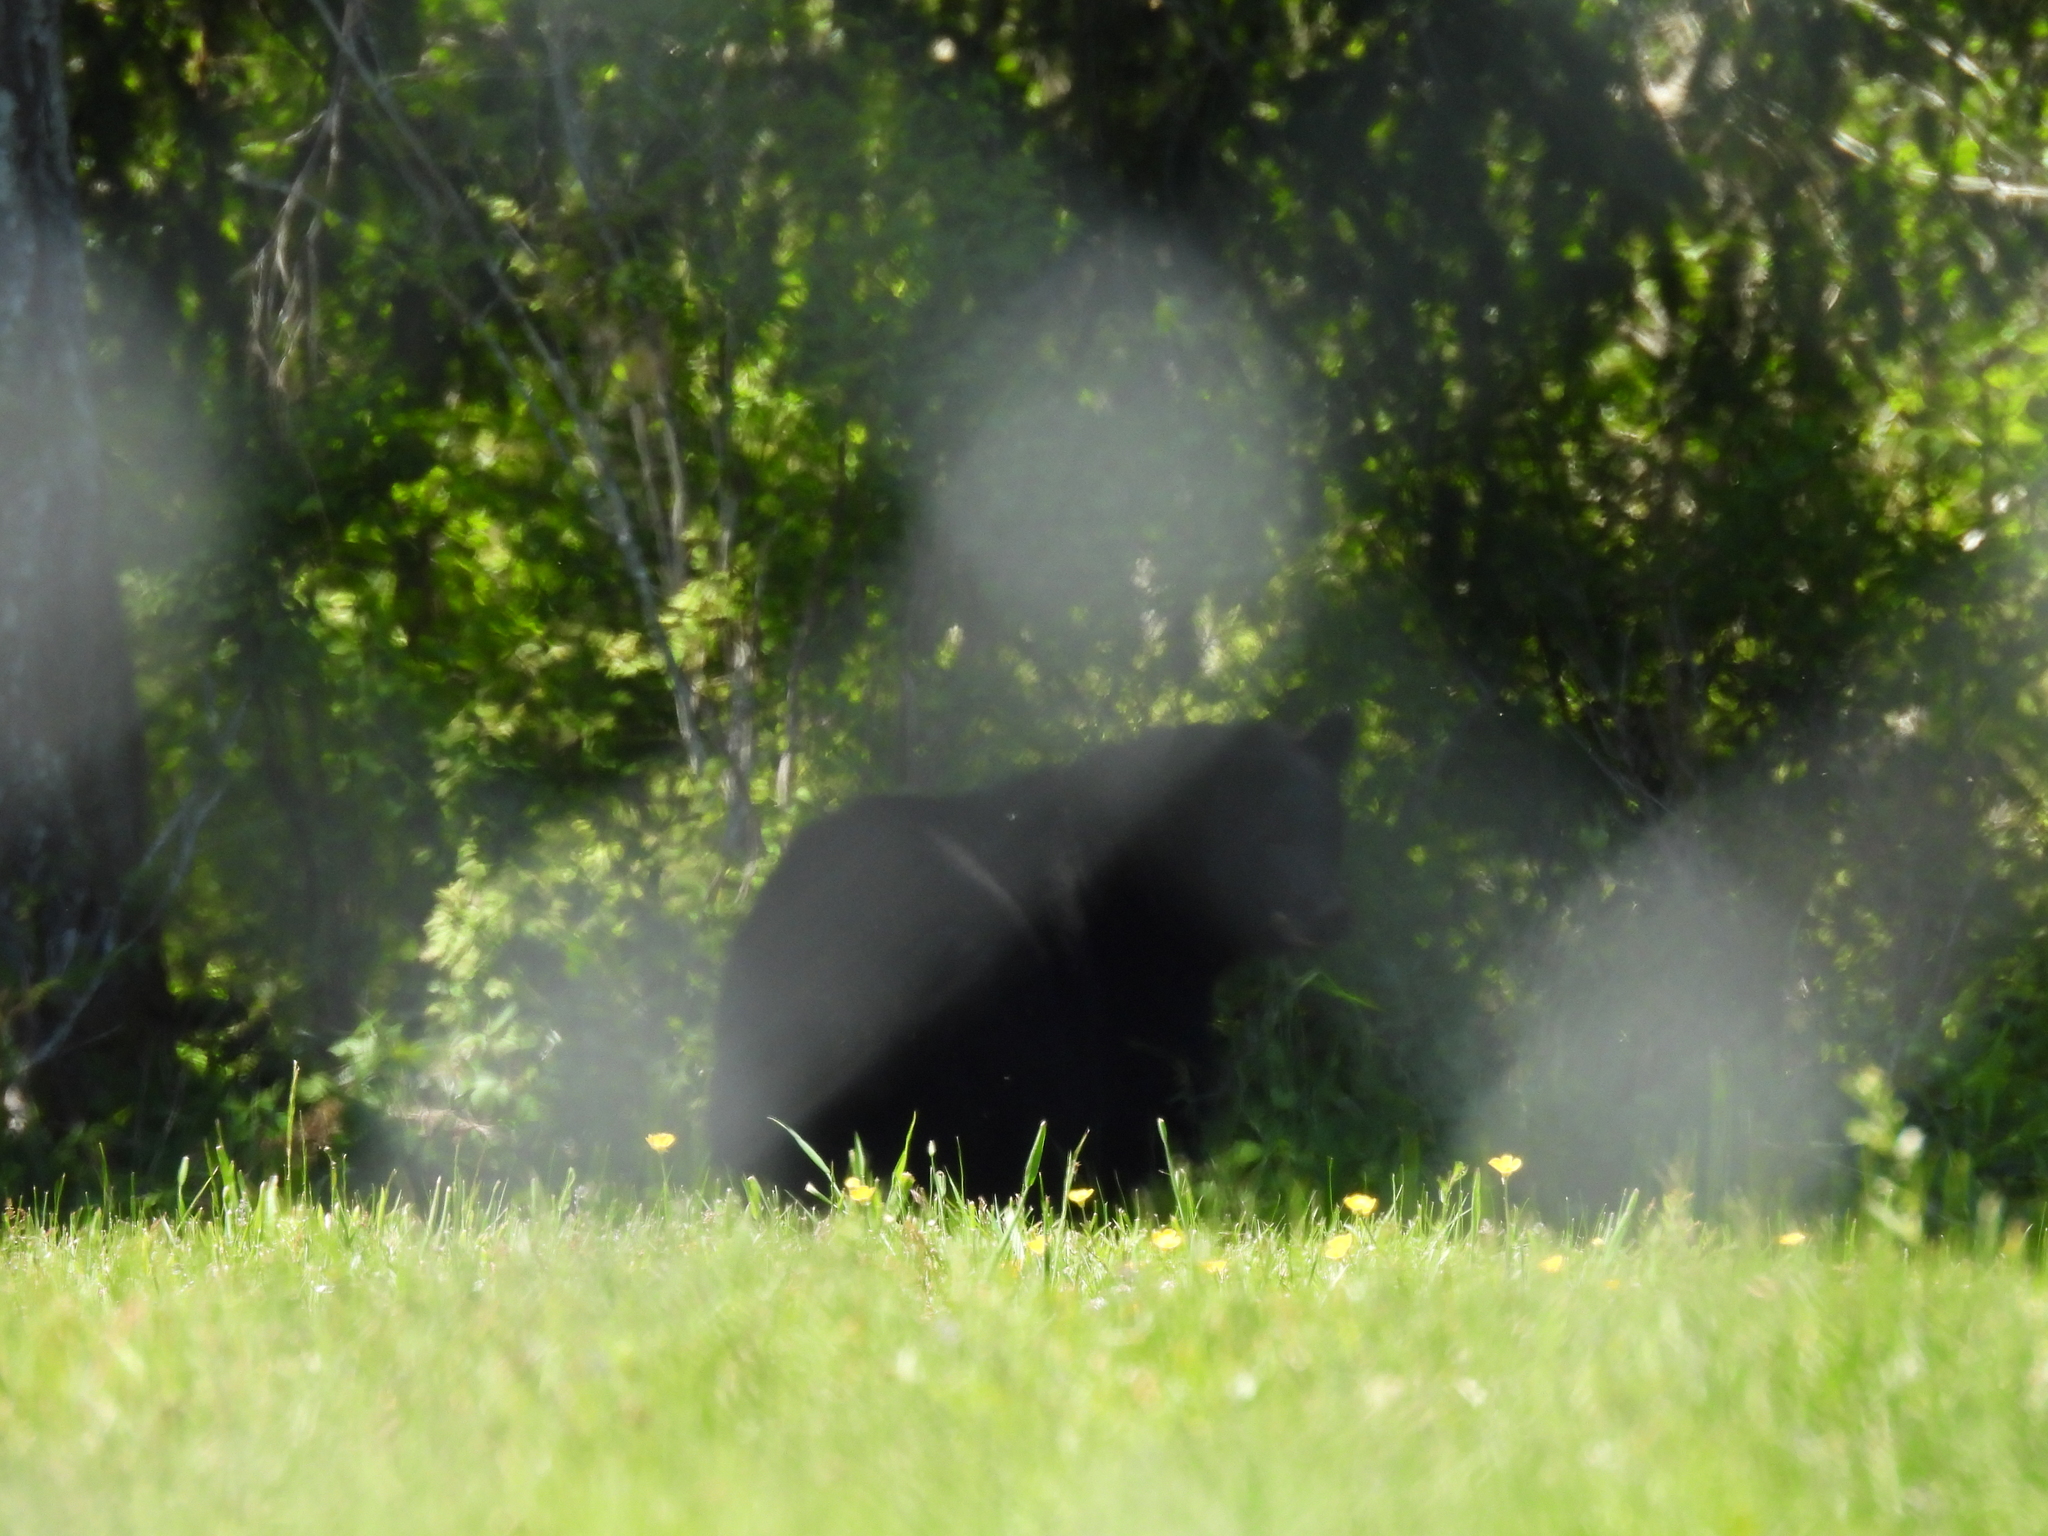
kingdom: Animalia
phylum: Chordata
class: Mammalia
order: Carnivora
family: Ursidae
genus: Ursus
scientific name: Ursus americanus
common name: American black bear
